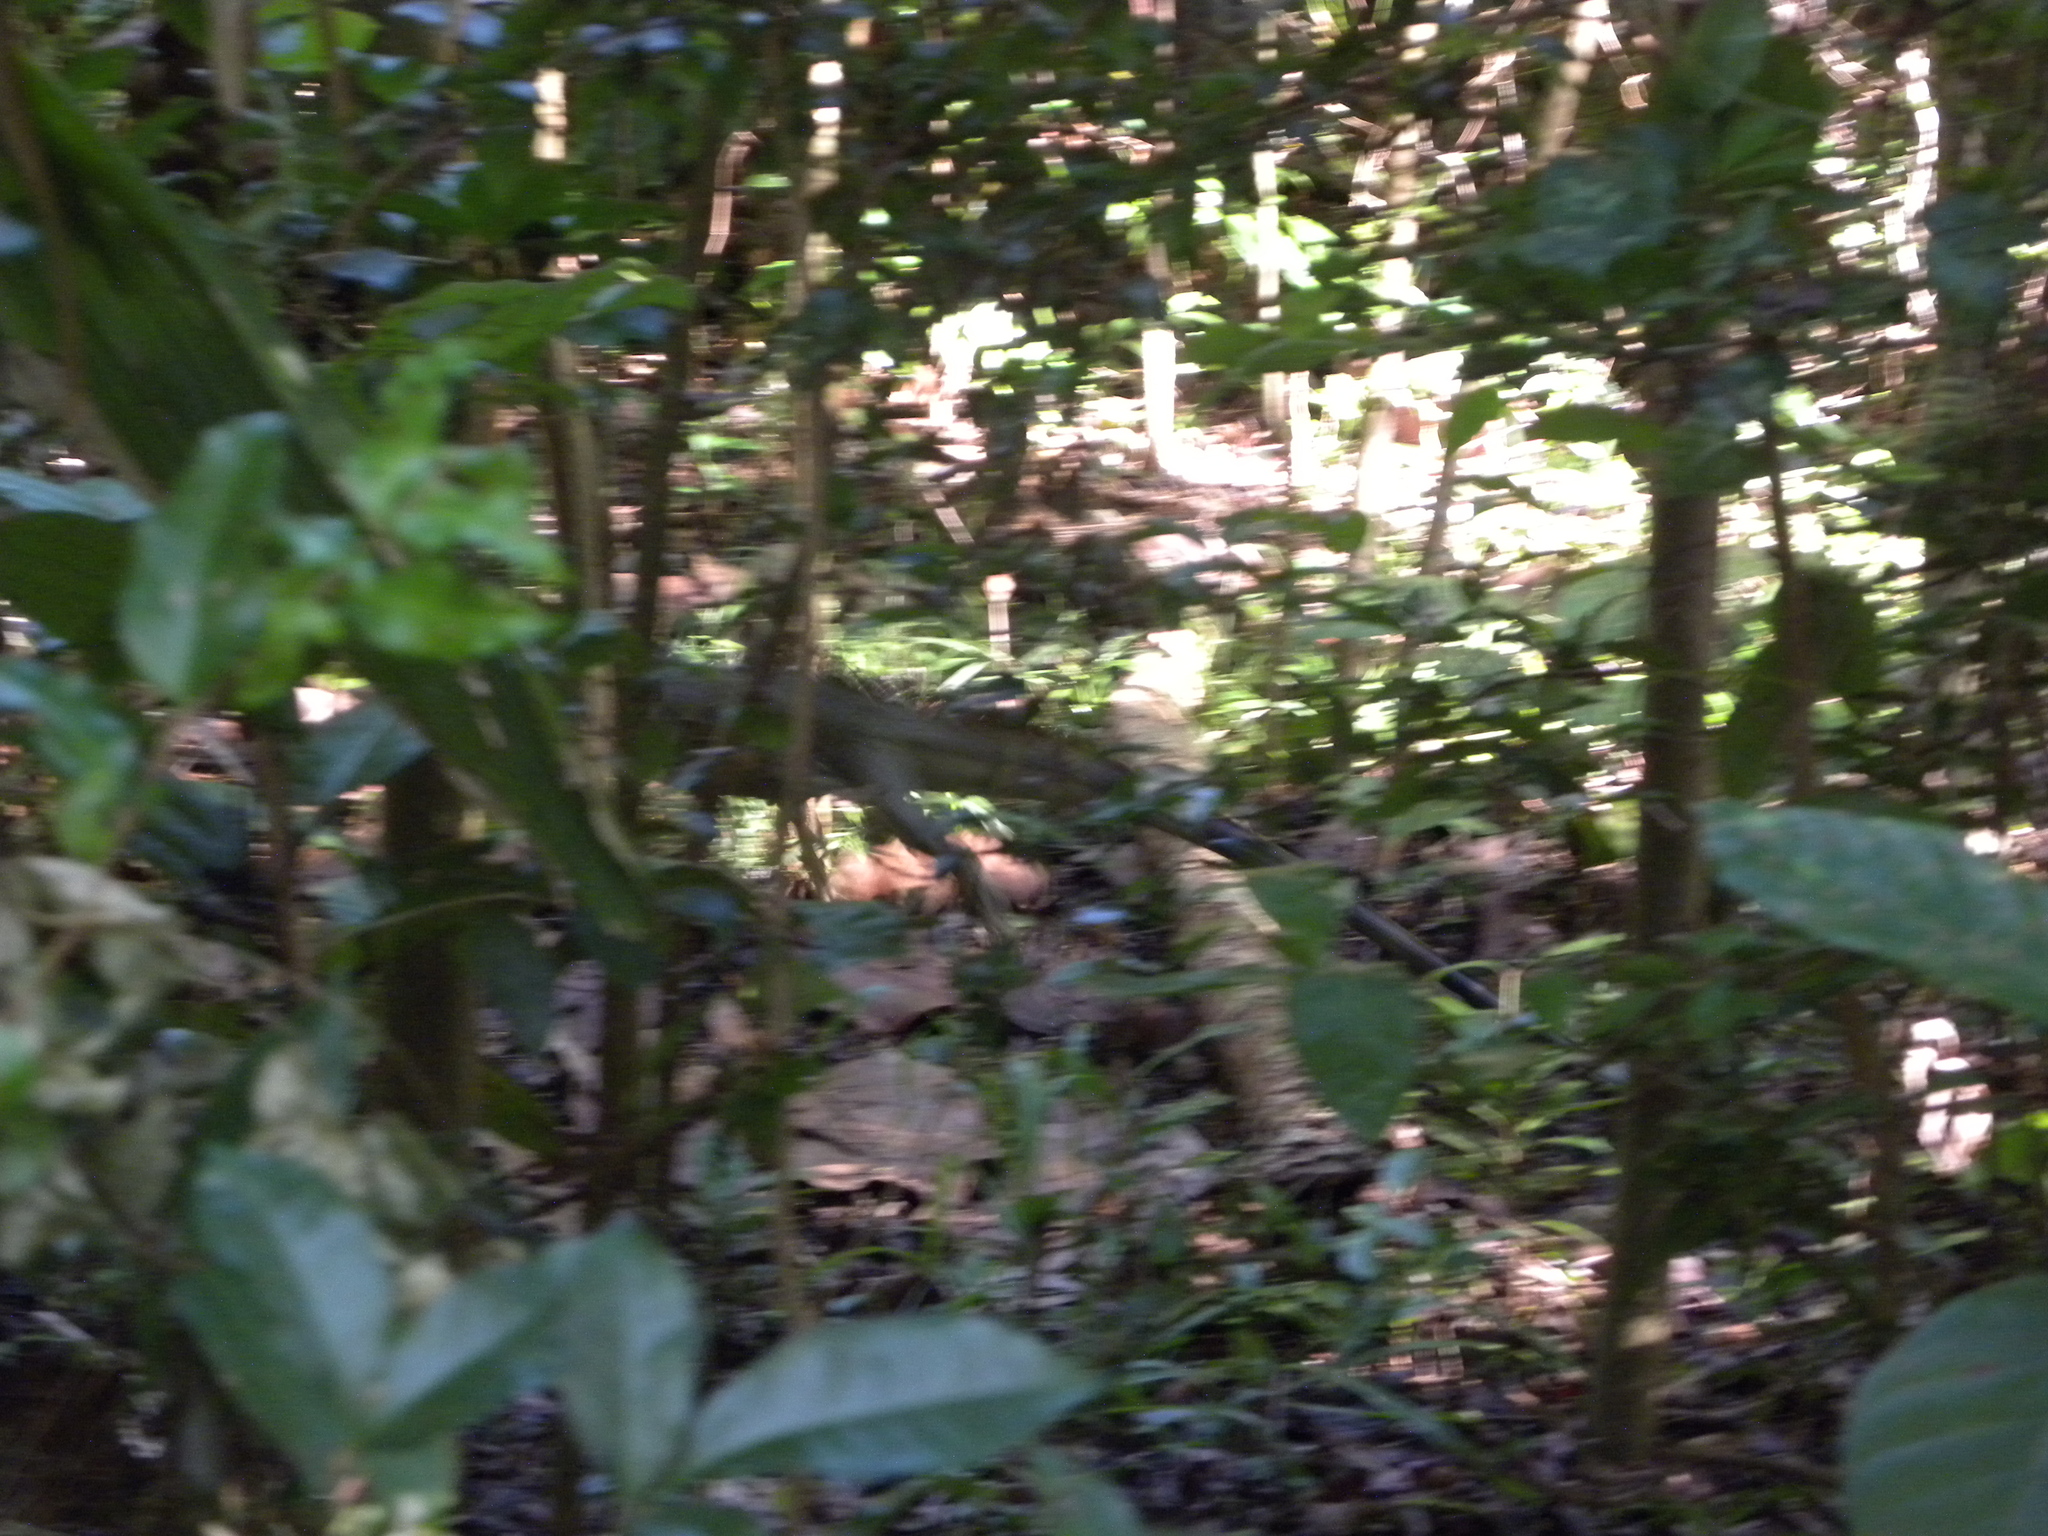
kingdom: Animalia
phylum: Chordata
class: Squamata
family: Iguanidae
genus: Iguana
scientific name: Iguana iguana
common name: Green iguana
